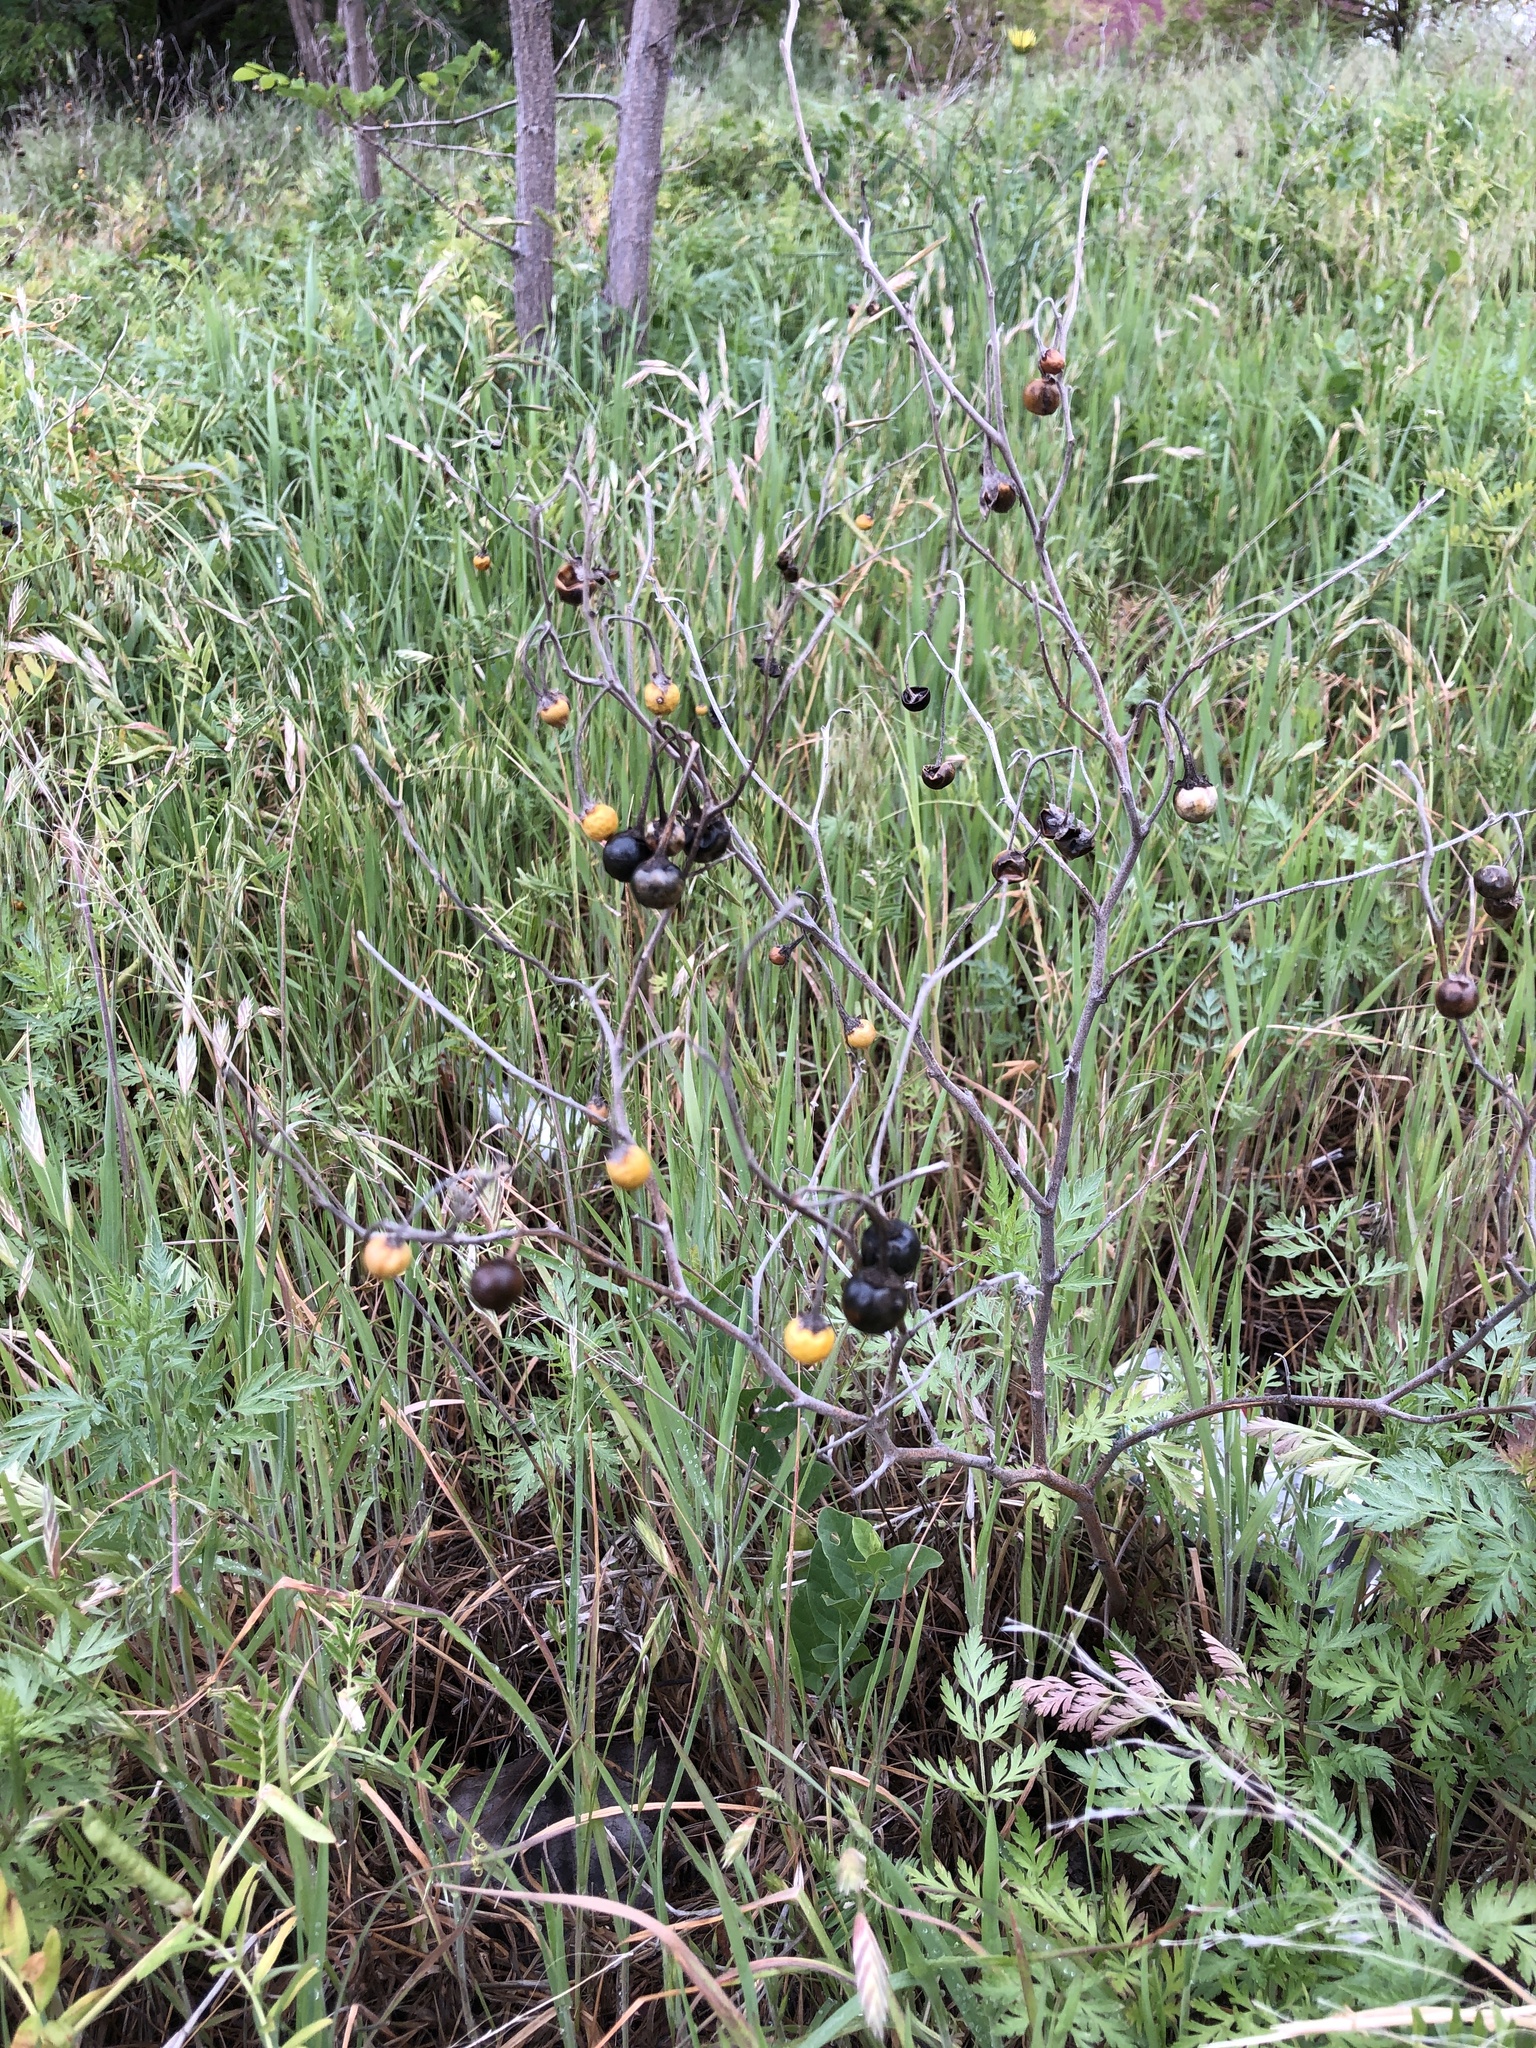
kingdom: Plantae
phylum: Tracheophyta
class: Magnoliopsida
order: Solanales
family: Solanaceae
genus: Solanum
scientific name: Solanum elaeagnifolium
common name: Silverleaf nightshade
